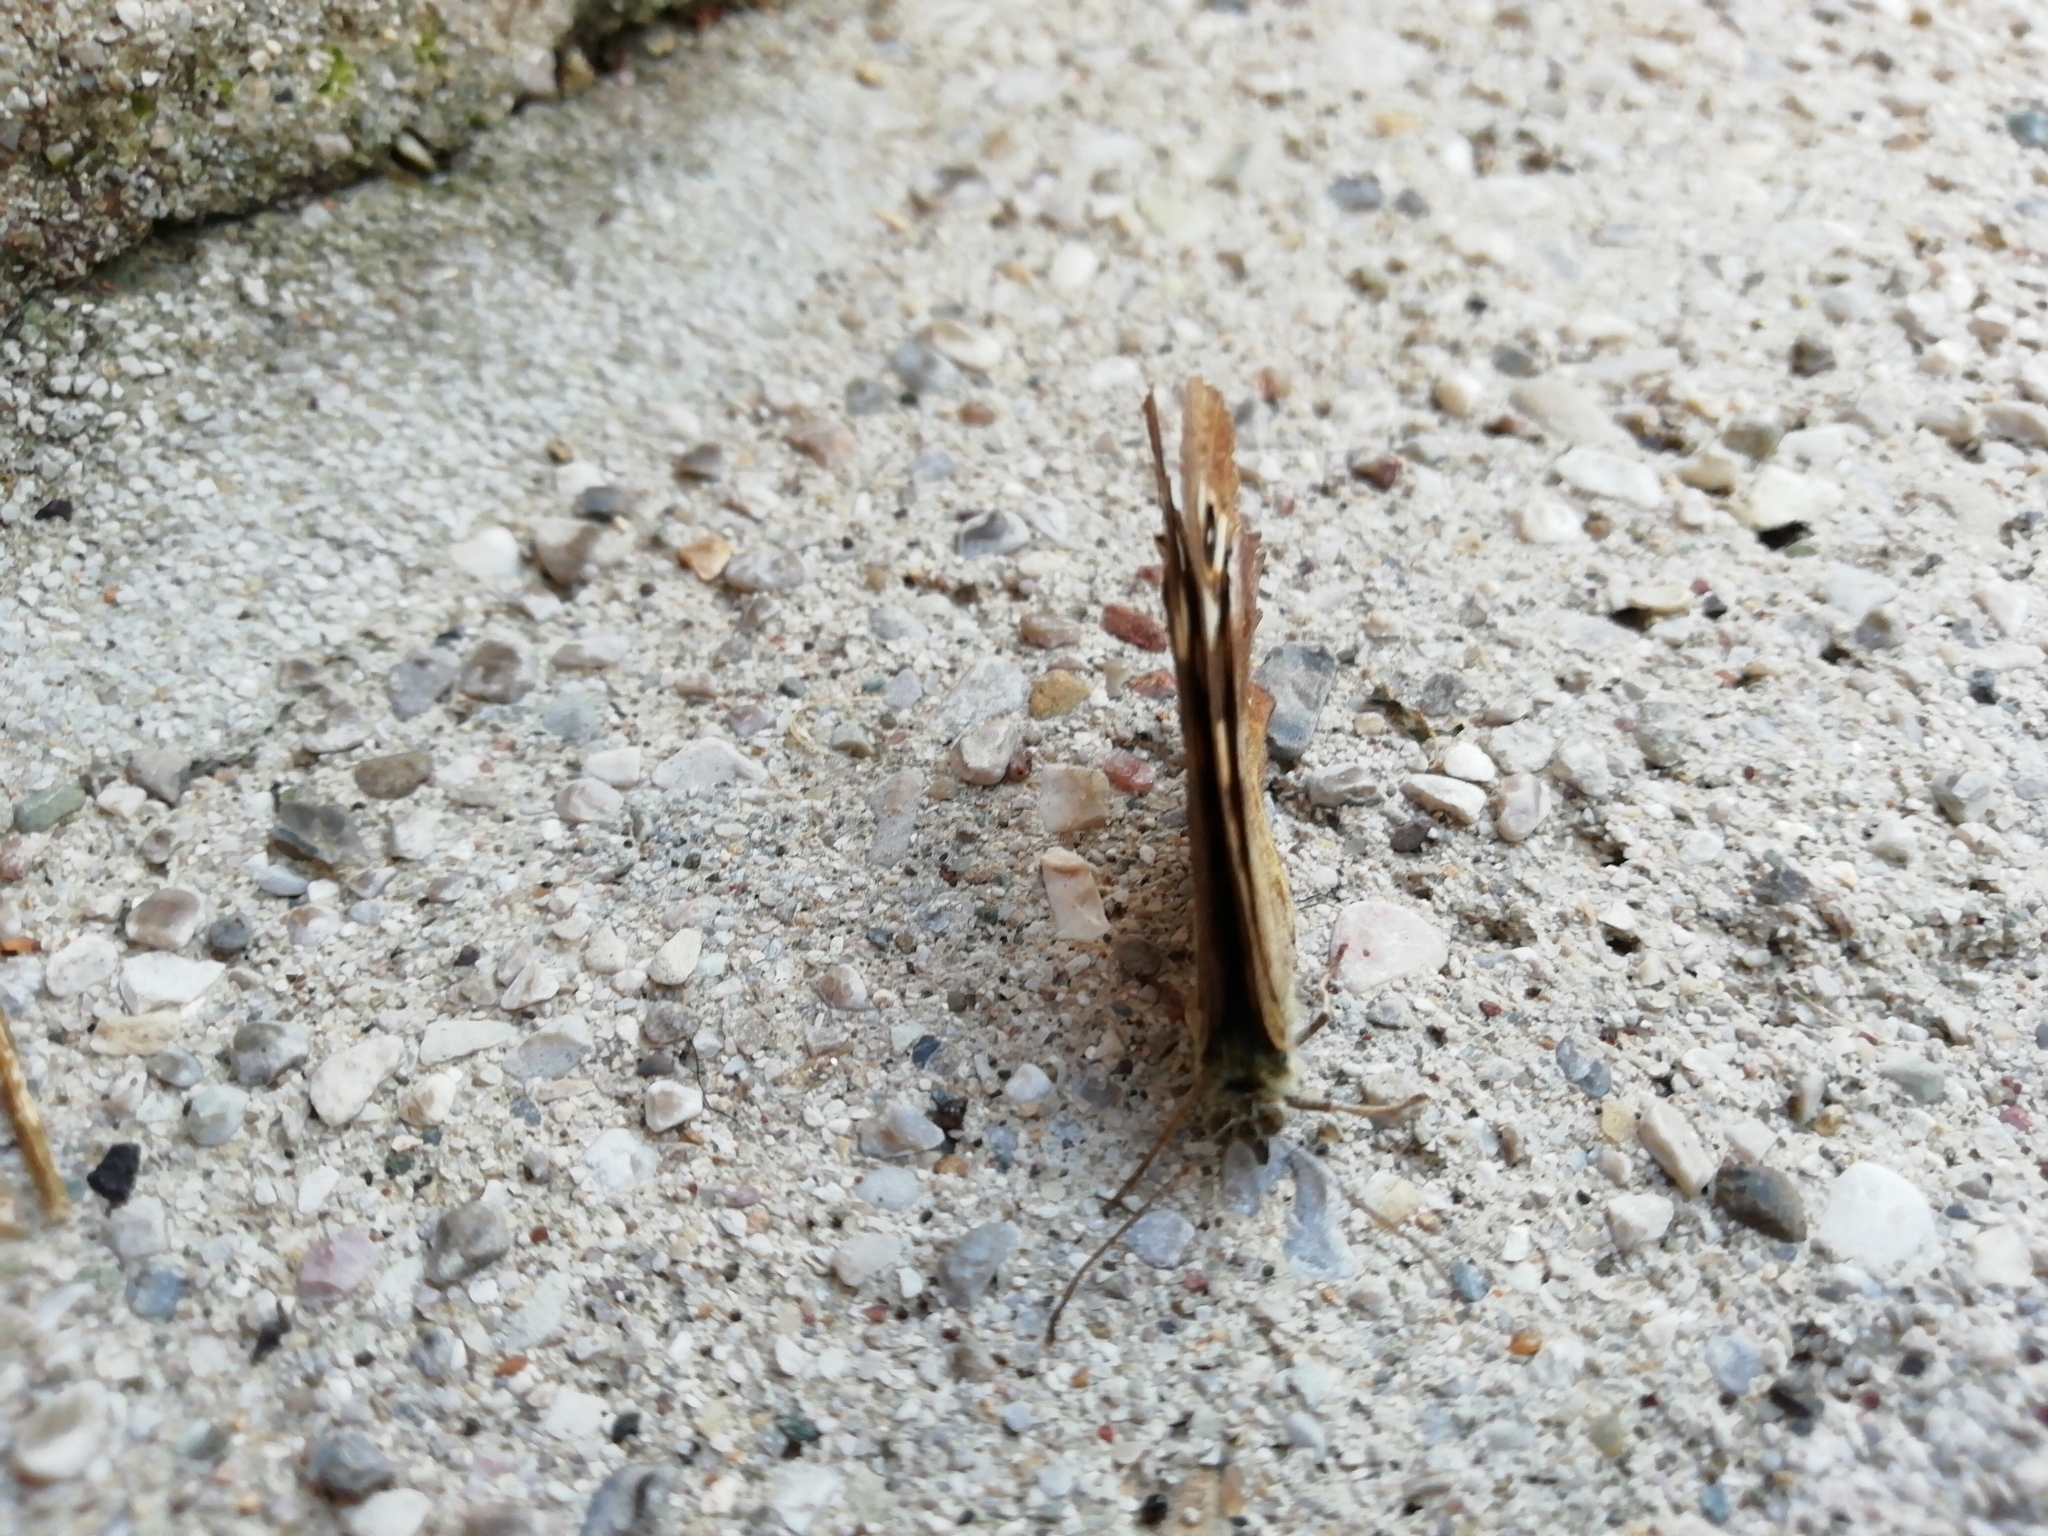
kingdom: Animalia
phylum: Arthropoda
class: Insecta
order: Lepidoptera
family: Nymphalidae
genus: Pararge
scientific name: Pararge aegeria
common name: Speckled wood
